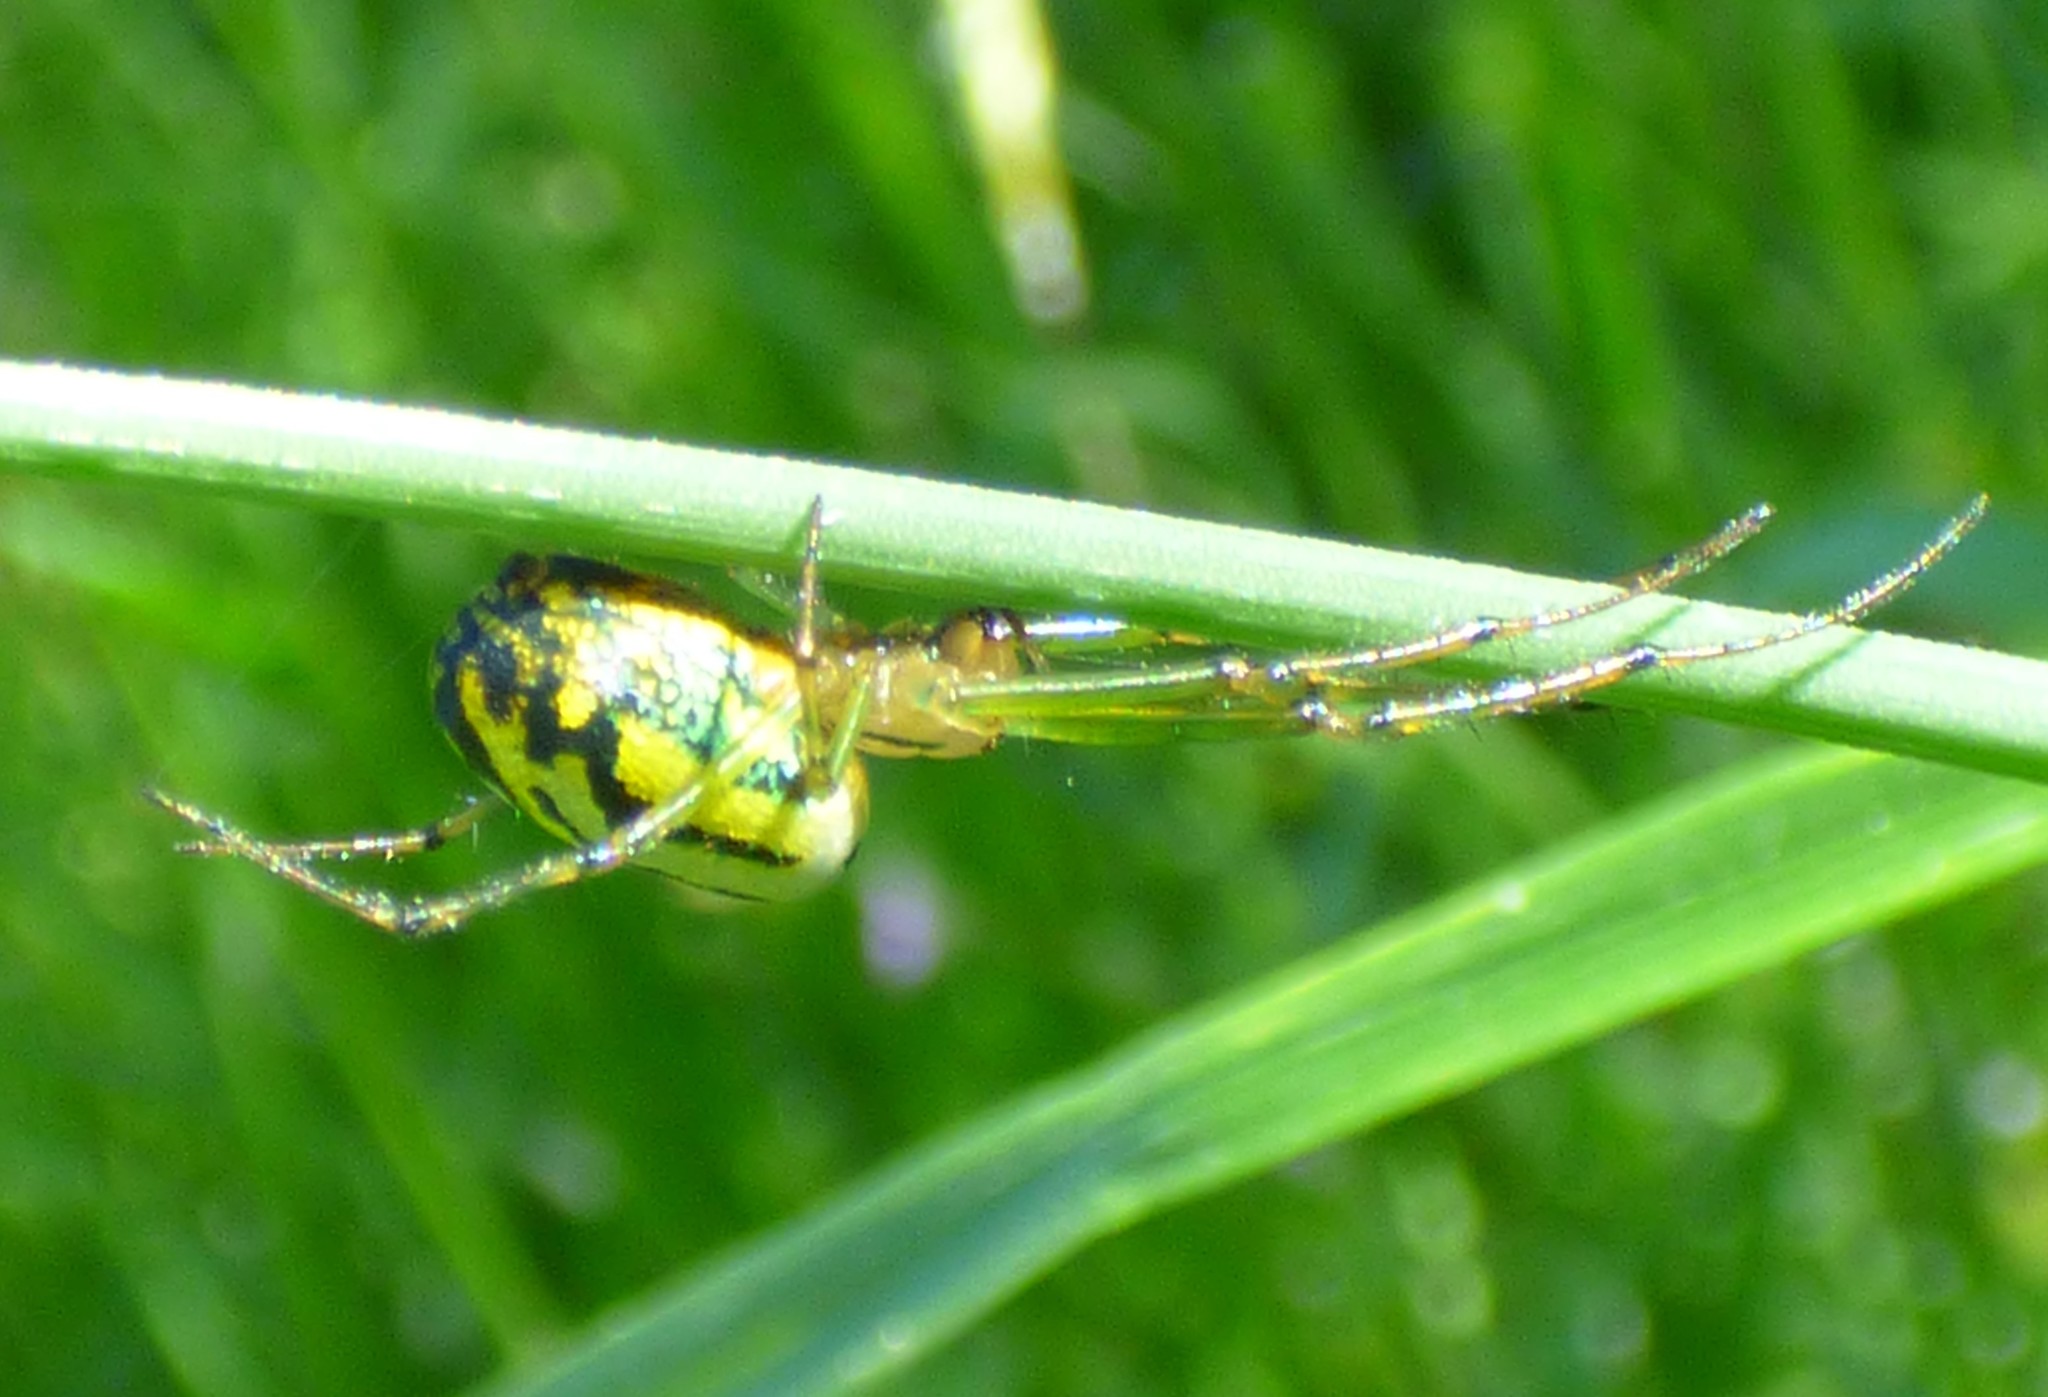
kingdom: Animalia
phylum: Arthropoda
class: Arachnida
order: Araneae
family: Tetragnathidae
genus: Leucauge
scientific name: Leucauge venusta
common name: Longjawed orb weavers
